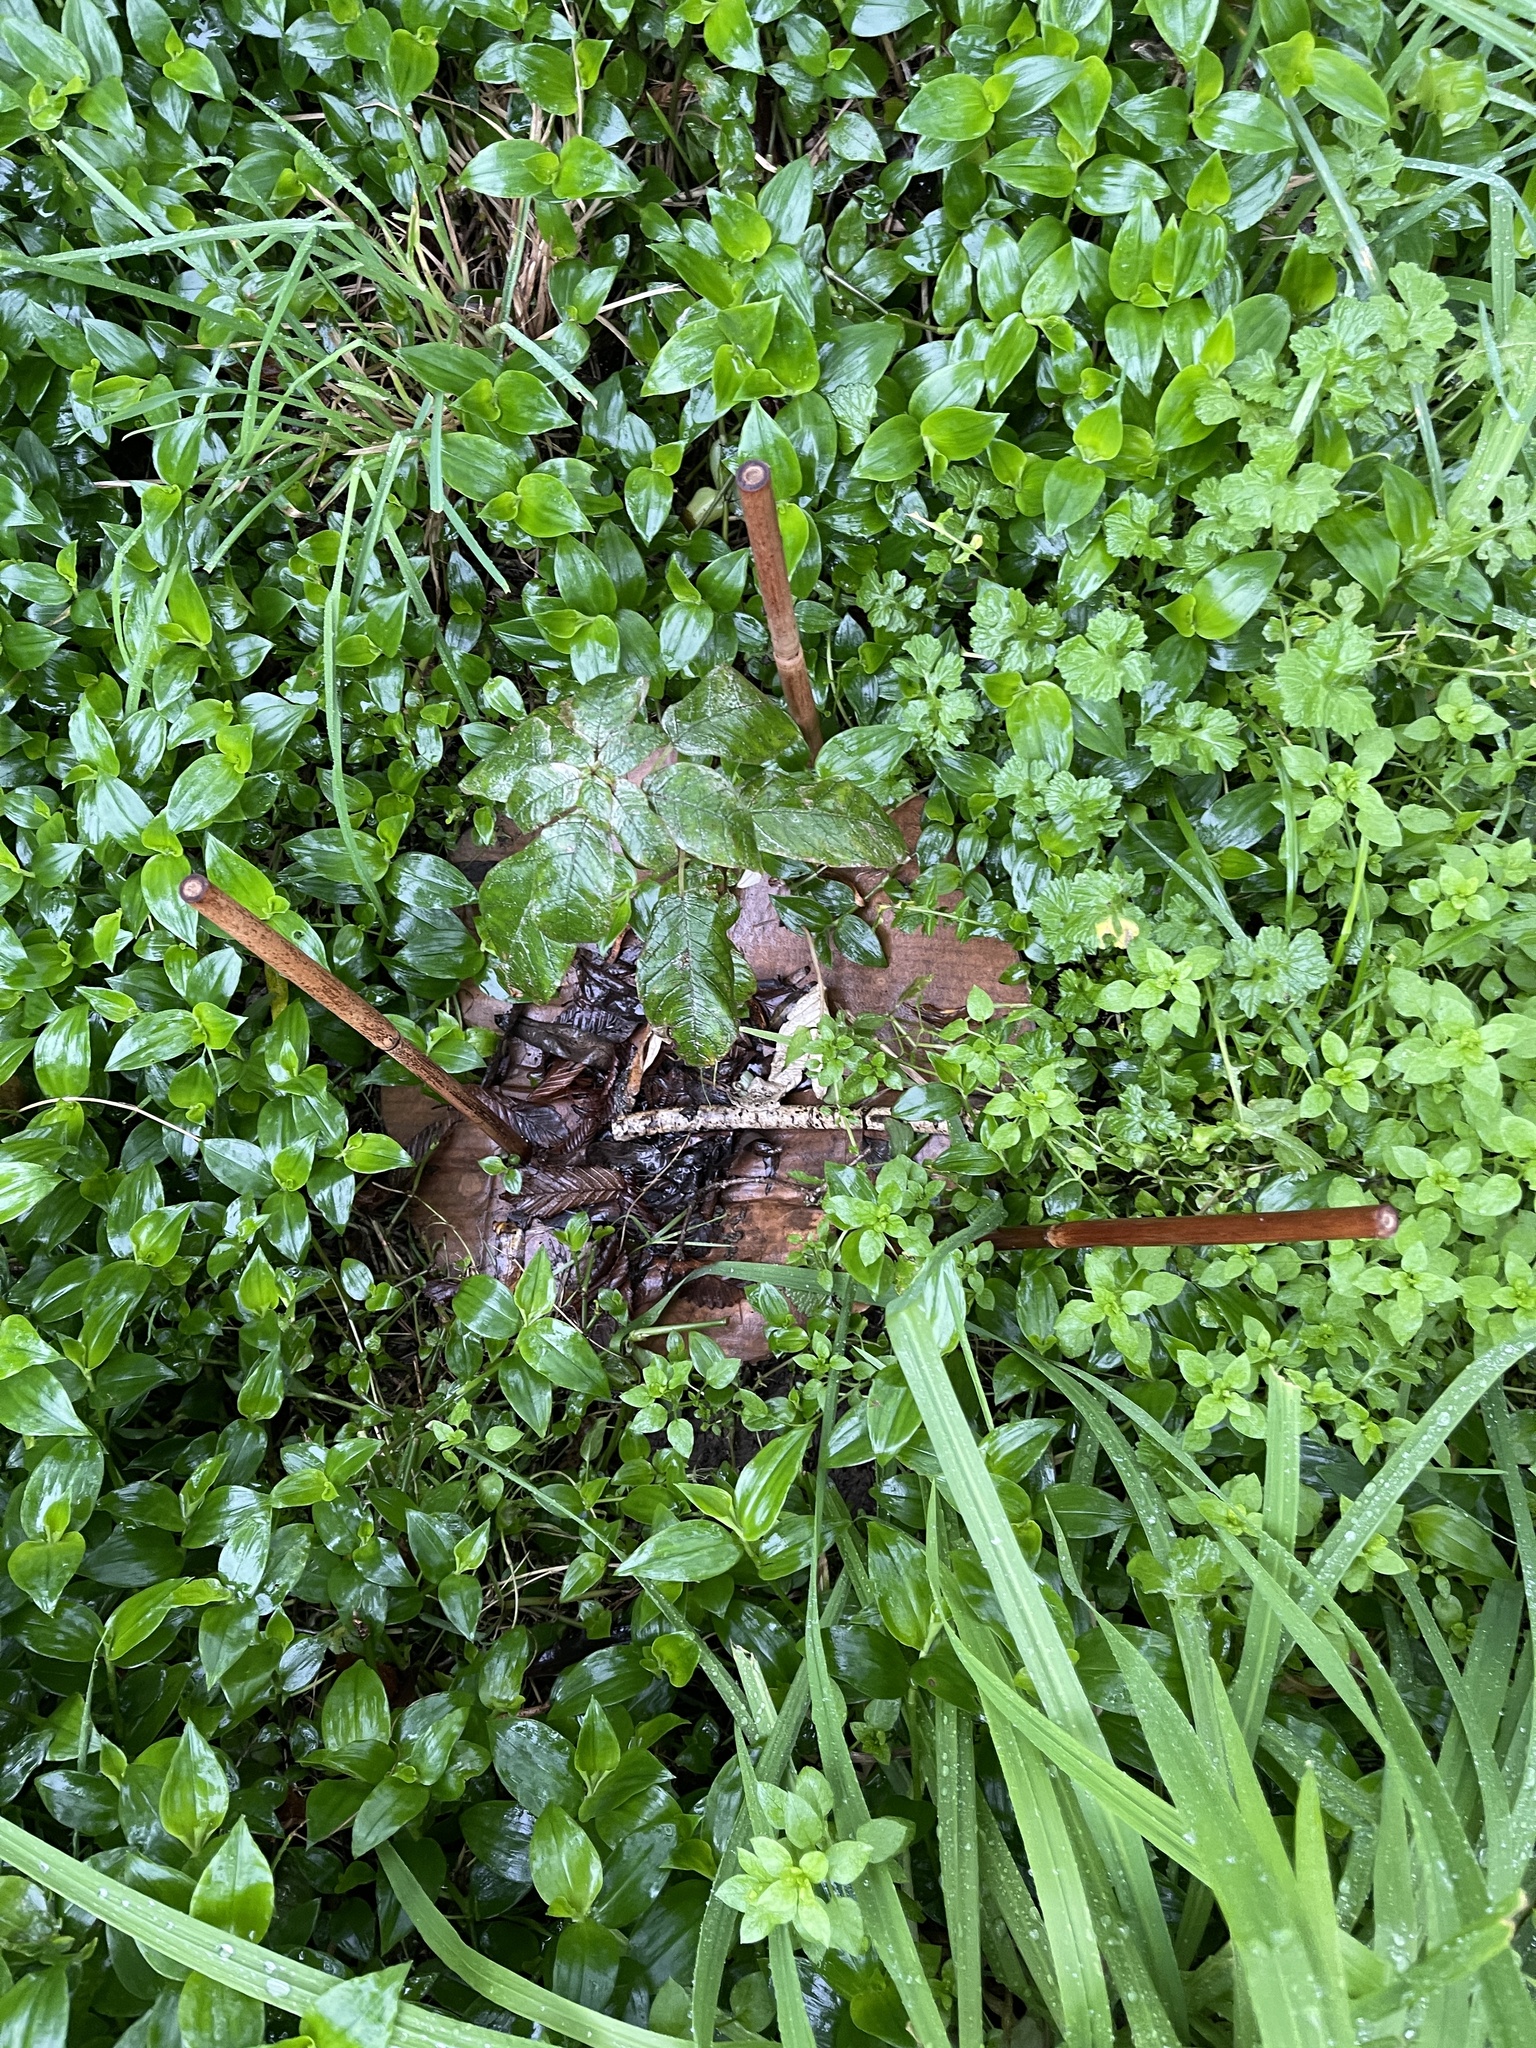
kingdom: Plantae
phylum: Tracheophyta
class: Magnoliopsida
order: Myrtales
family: Onagraceae
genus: Fuchsia
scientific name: Fuchsia excorticata
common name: Tree fuchsia
